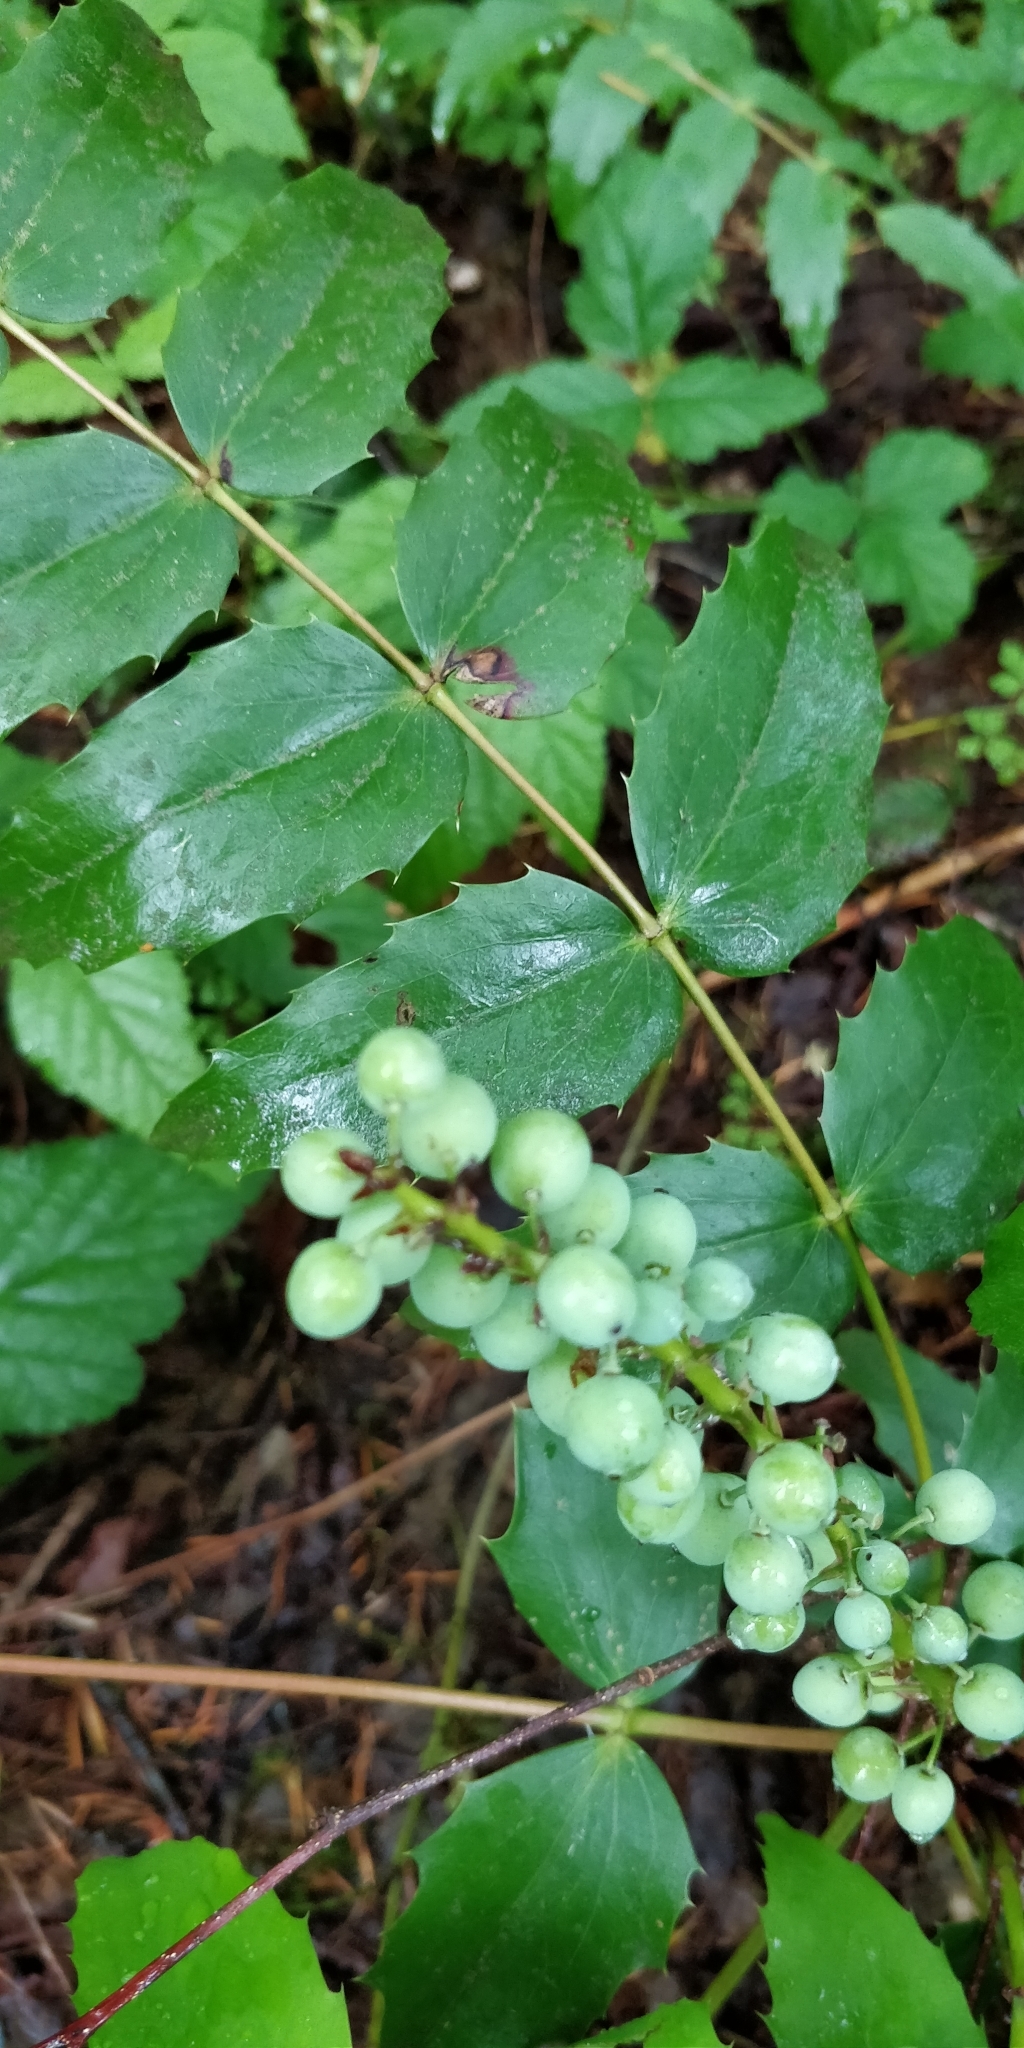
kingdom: Plantae
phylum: Tracheophyta
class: Magnoliopsida
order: Ranunculales
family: Berberidaceae
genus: Mahonia
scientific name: Mahonia nervosa
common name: Cascade oregon-grape
